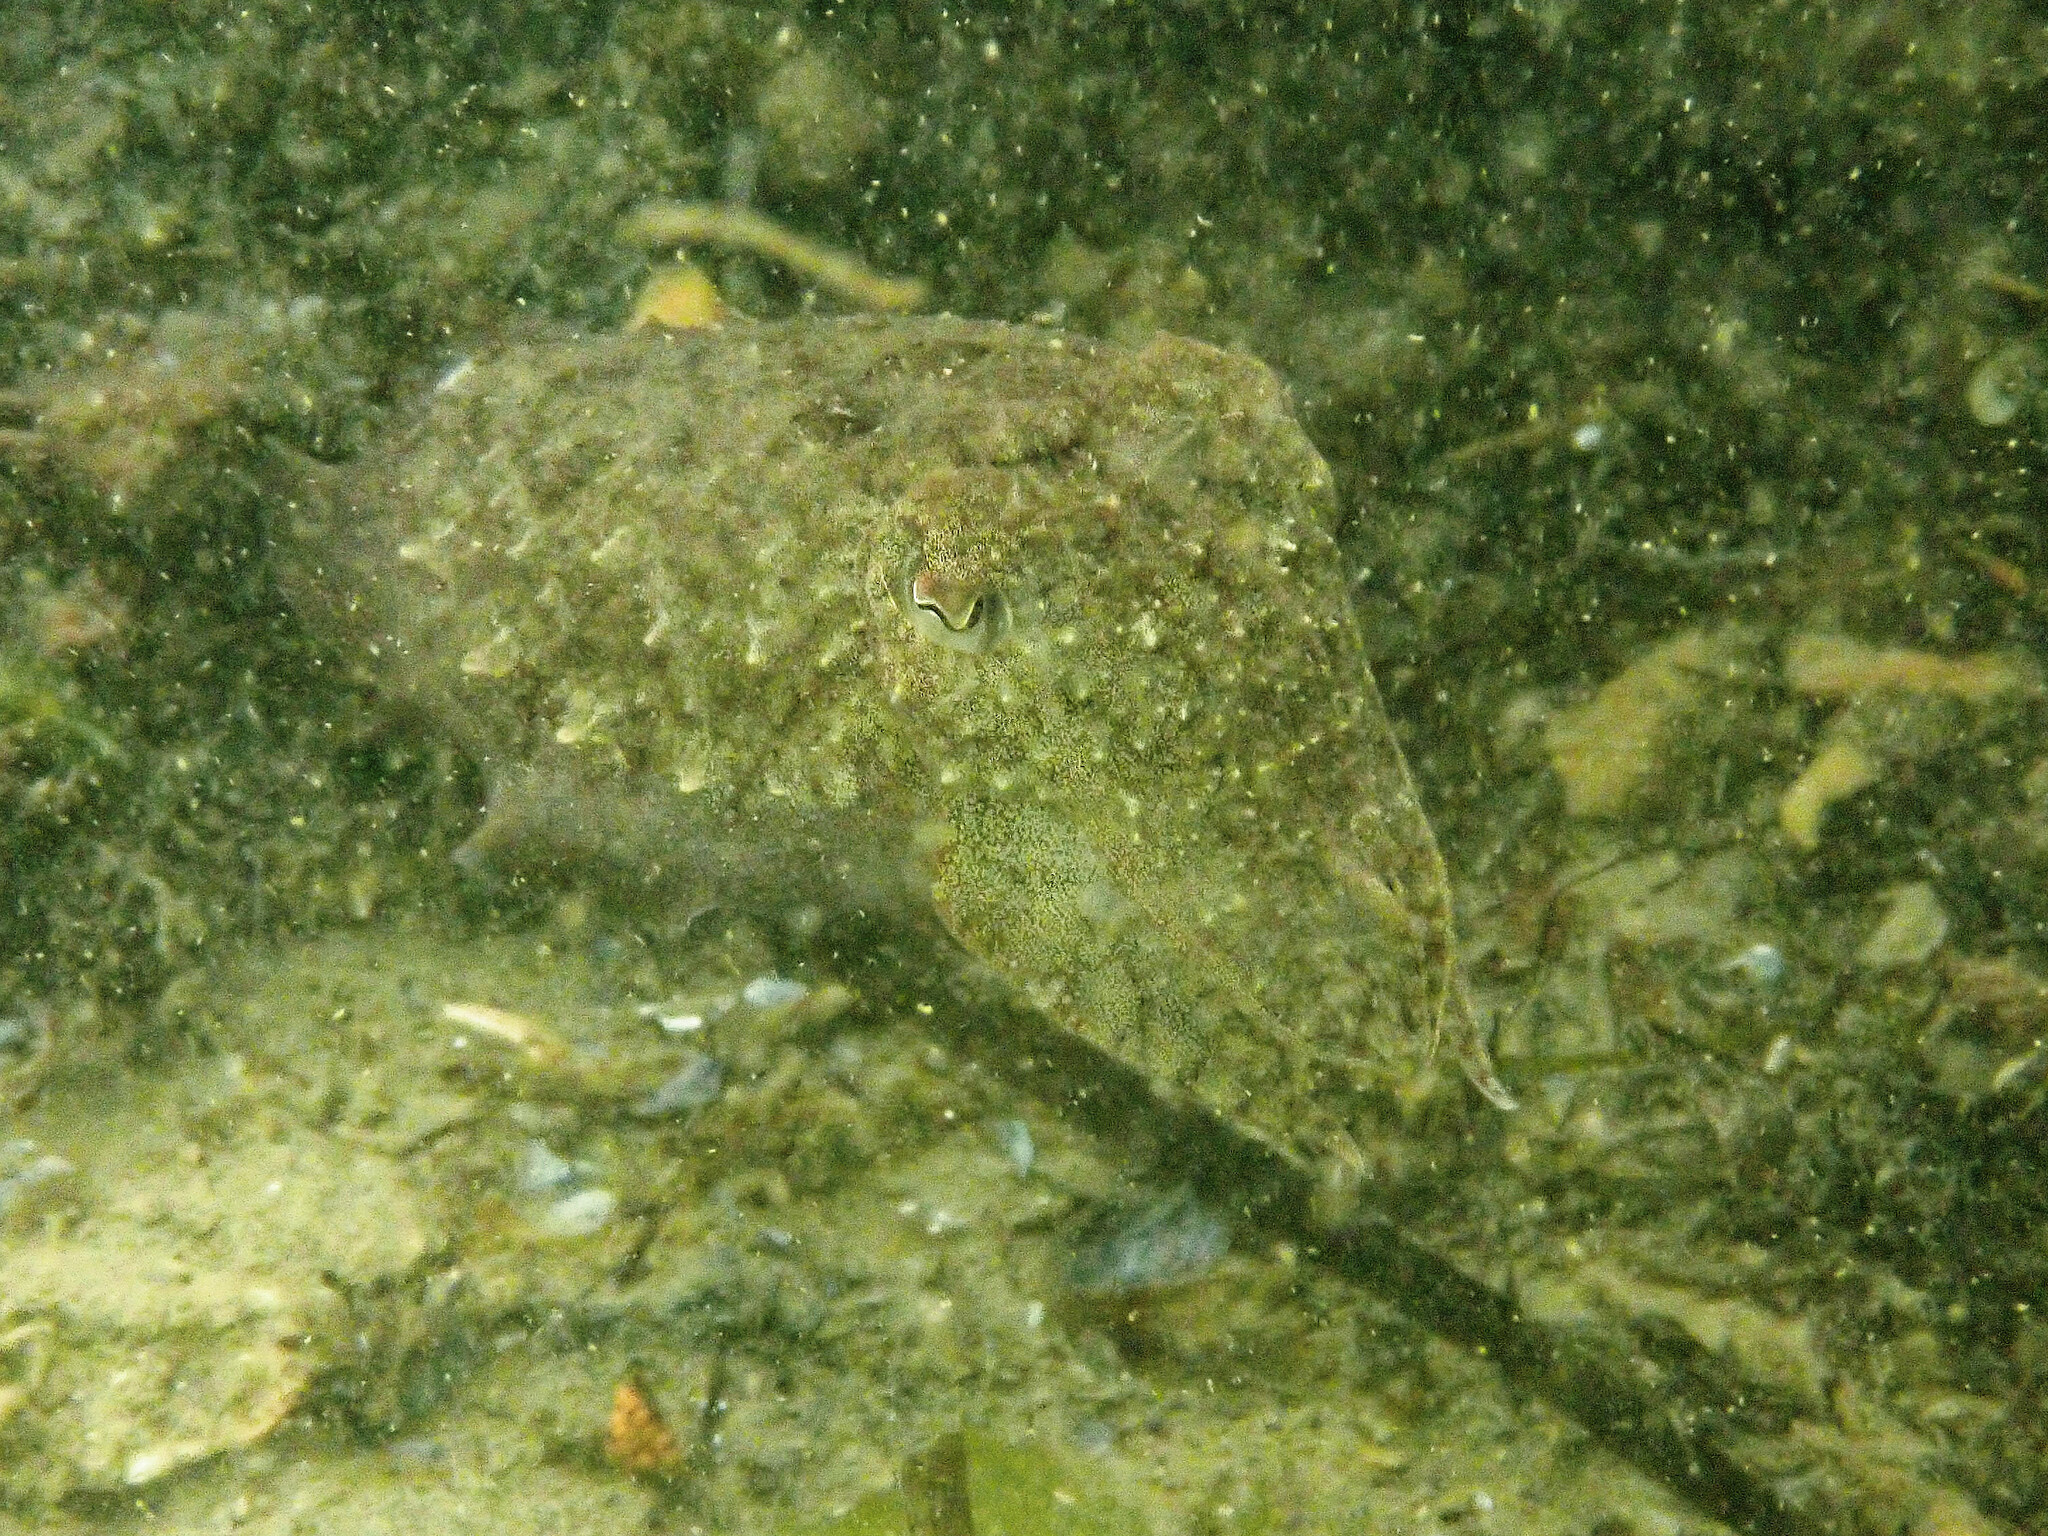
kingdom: Animalia
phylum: Mollusca
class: Cephalopoda
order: Sepiida
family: Sepiidae
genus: Sepia
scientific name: Sepia officinalis
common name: Common cuttlefish
